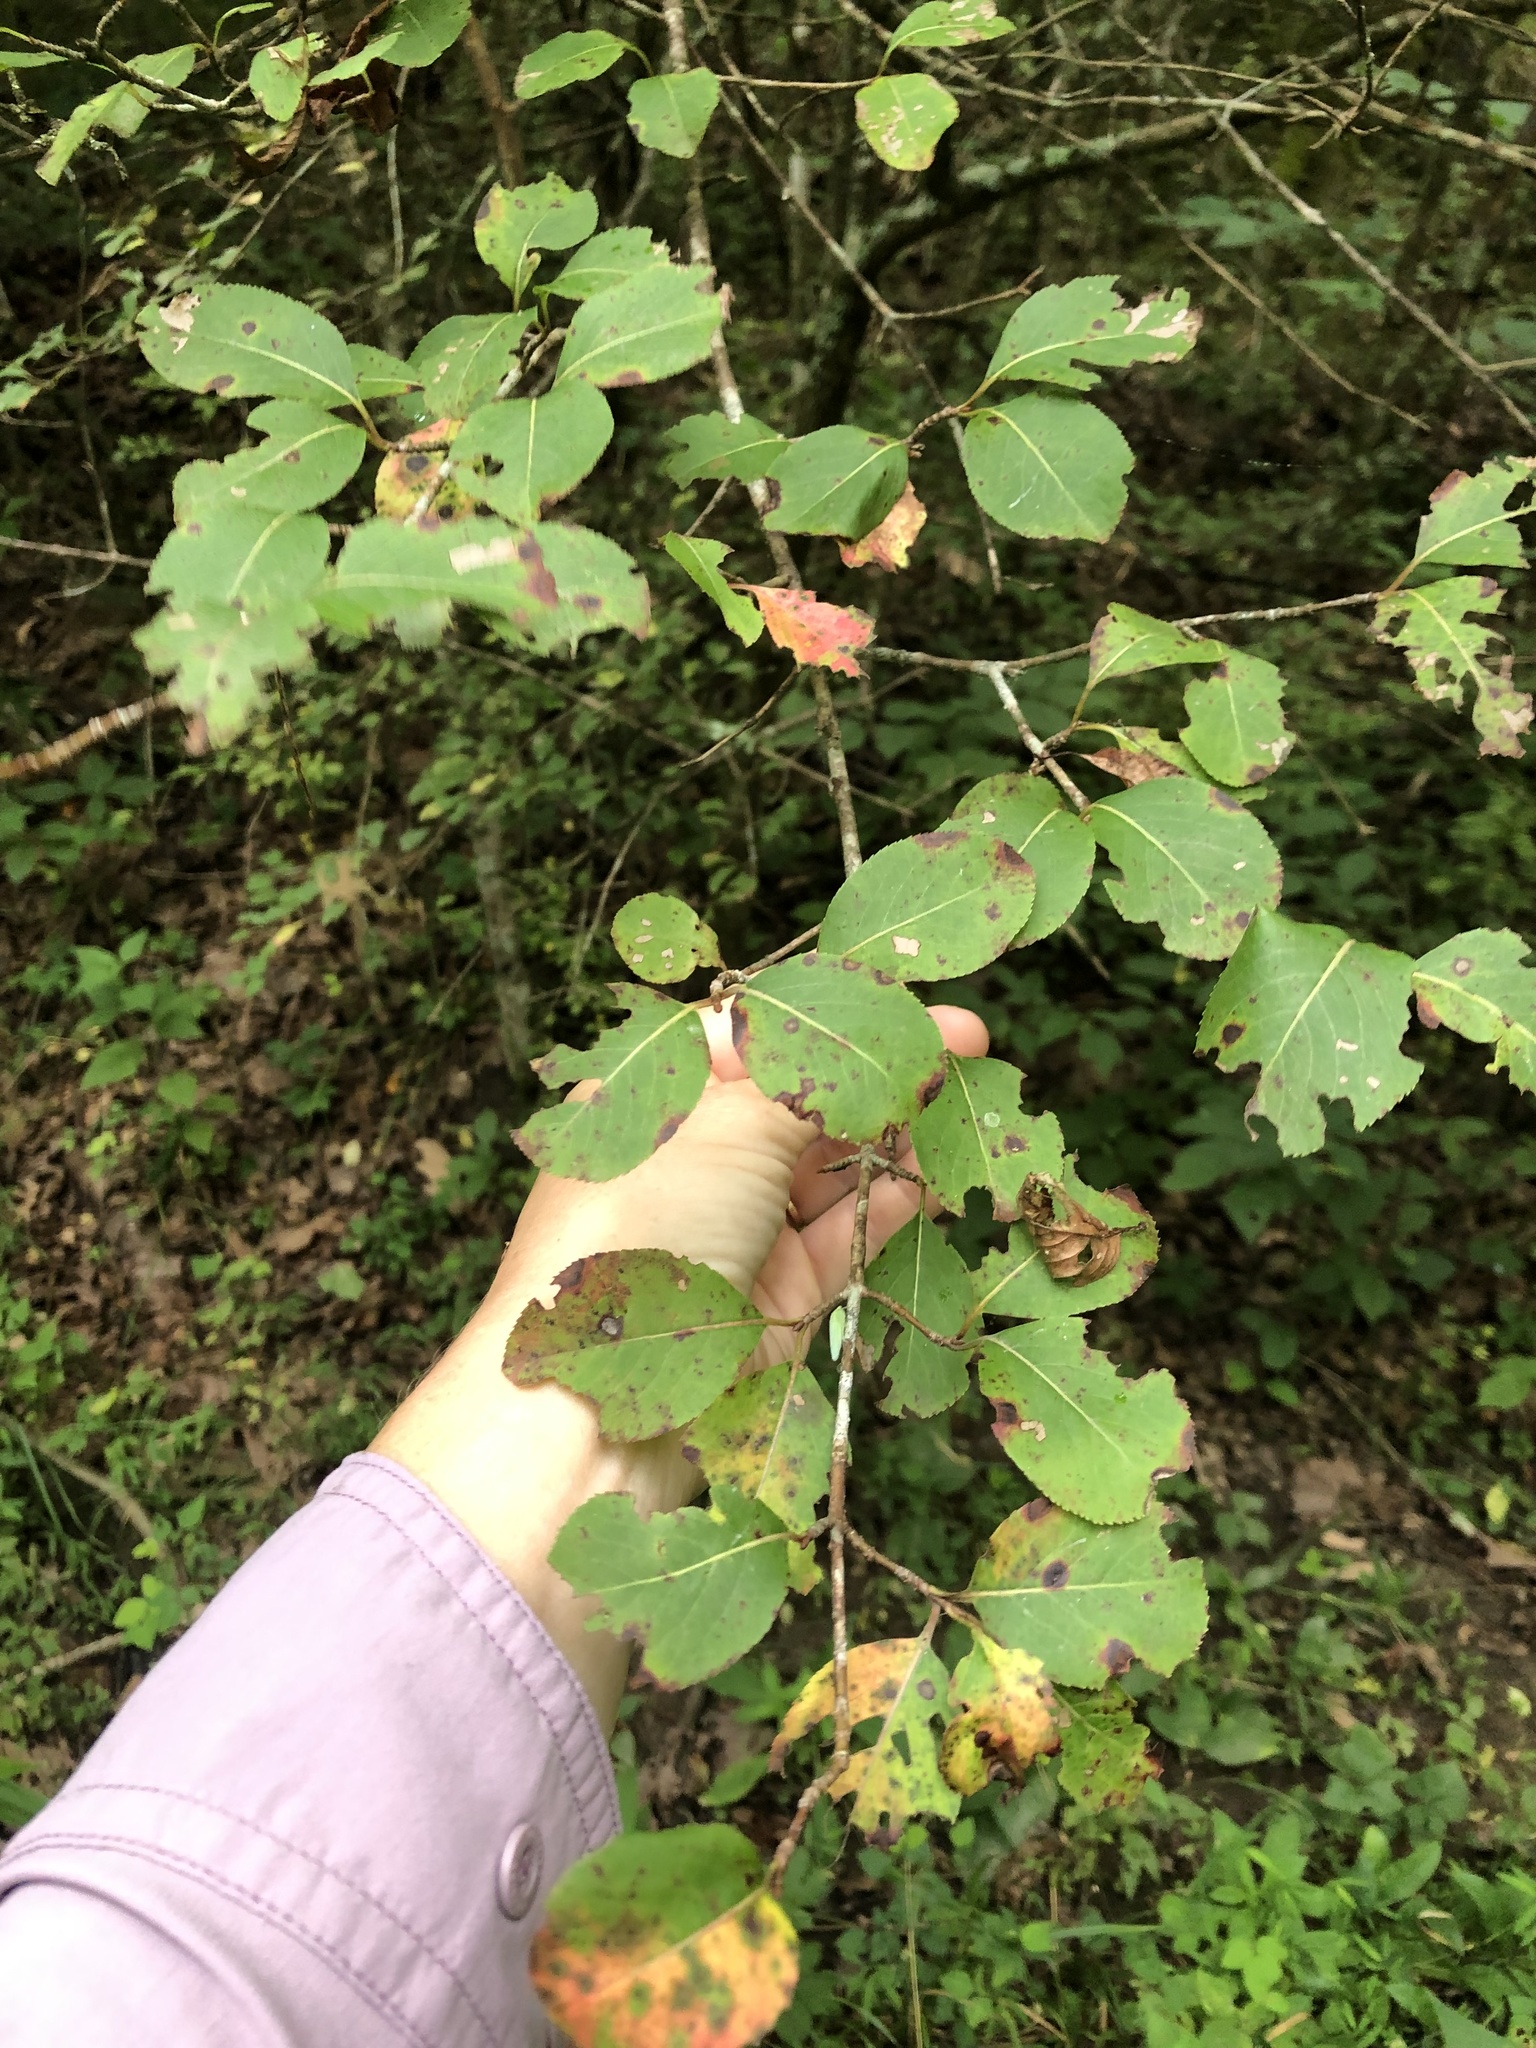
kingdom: Plantae
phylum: Tracheophyta
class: Magnoliopsida
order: Dipsacales
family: Viburnaceae
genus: Viburnum
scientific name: Viburnum prunifolium
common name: Black haw
